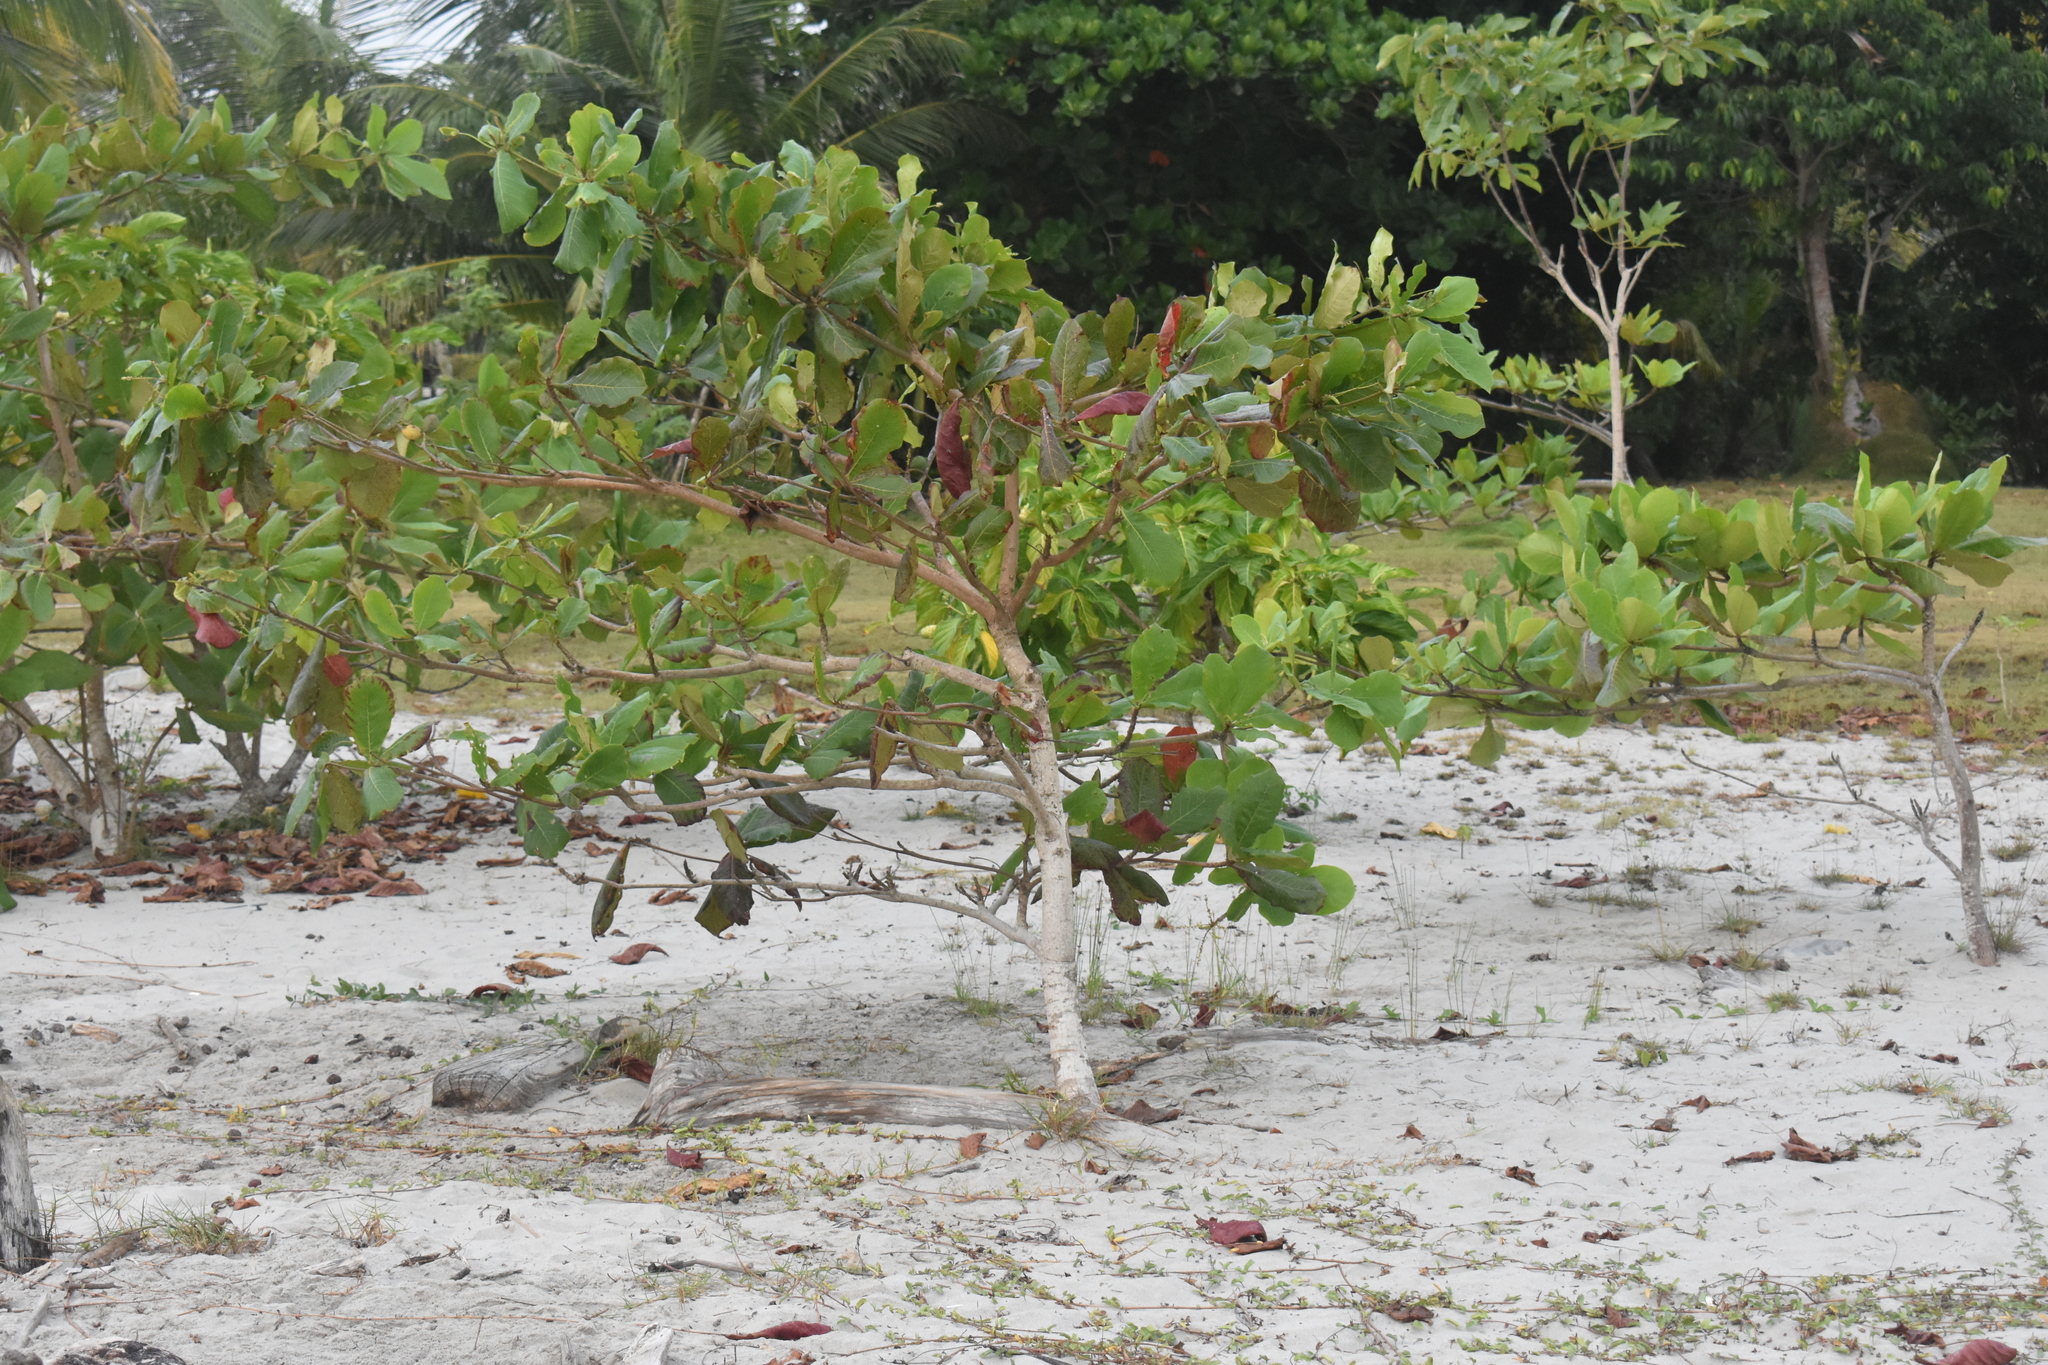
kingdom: Plantae
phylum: Tracheophyta
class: Magnoliopsida
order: Myrtales
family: Combretaceae
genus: Terminalia
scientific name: Terminalia catappa
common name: Tropical almond
